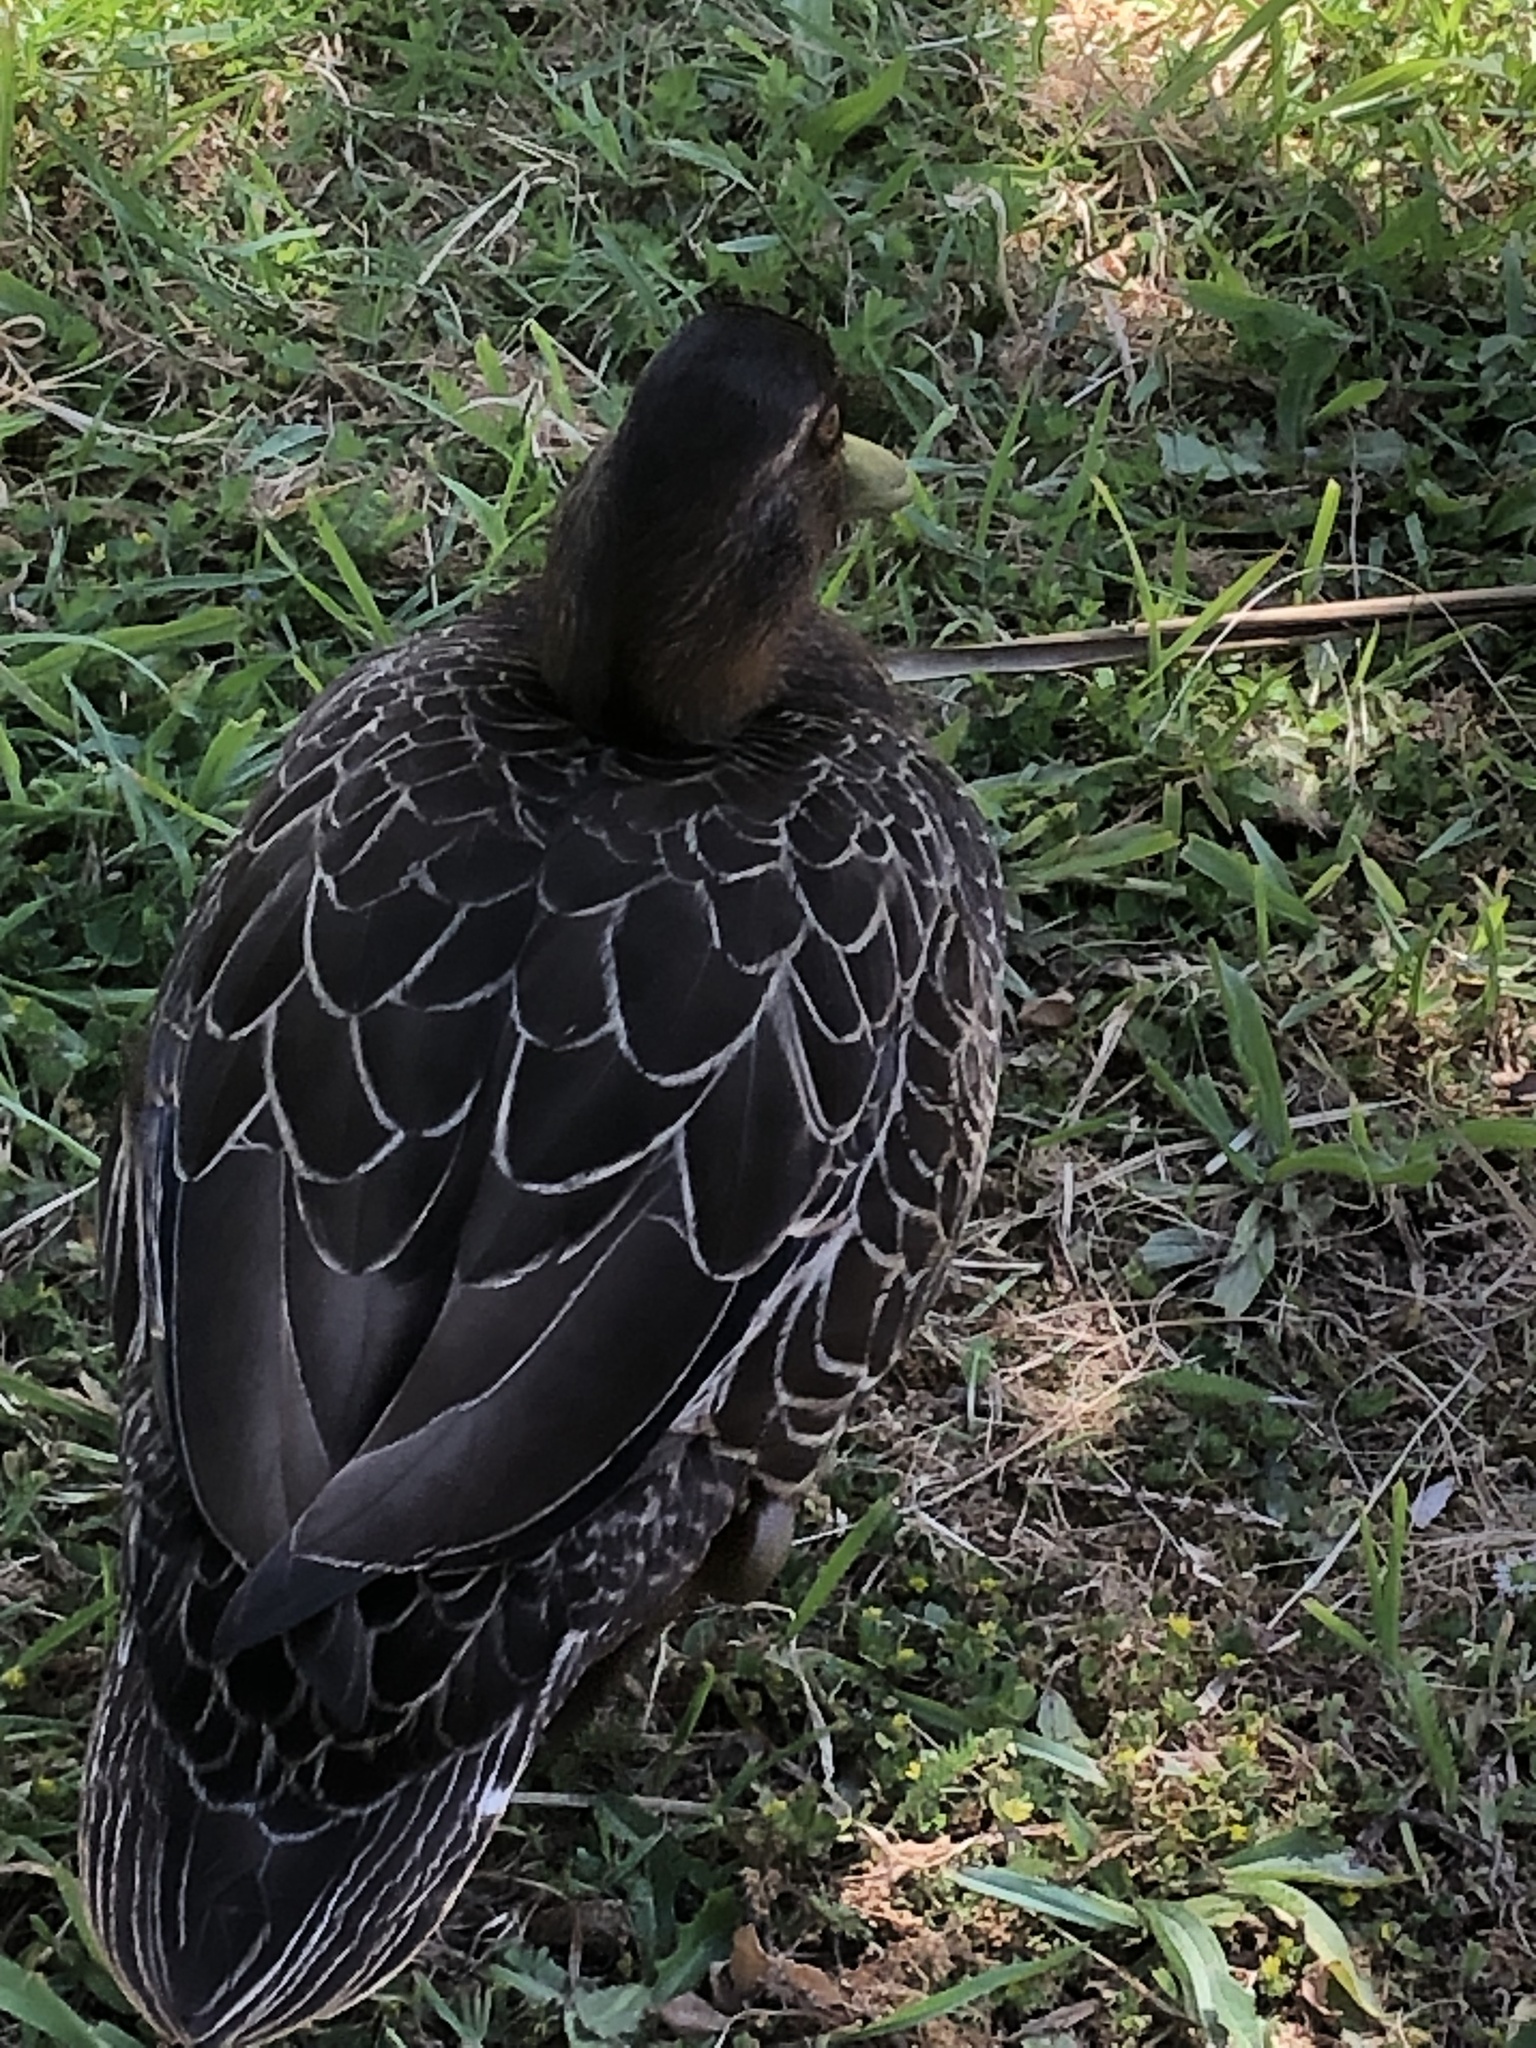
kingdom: Animalia
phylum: Chordata
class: Aves
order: Anseriformes
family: Anatidae
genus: Anas
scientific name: Anas
